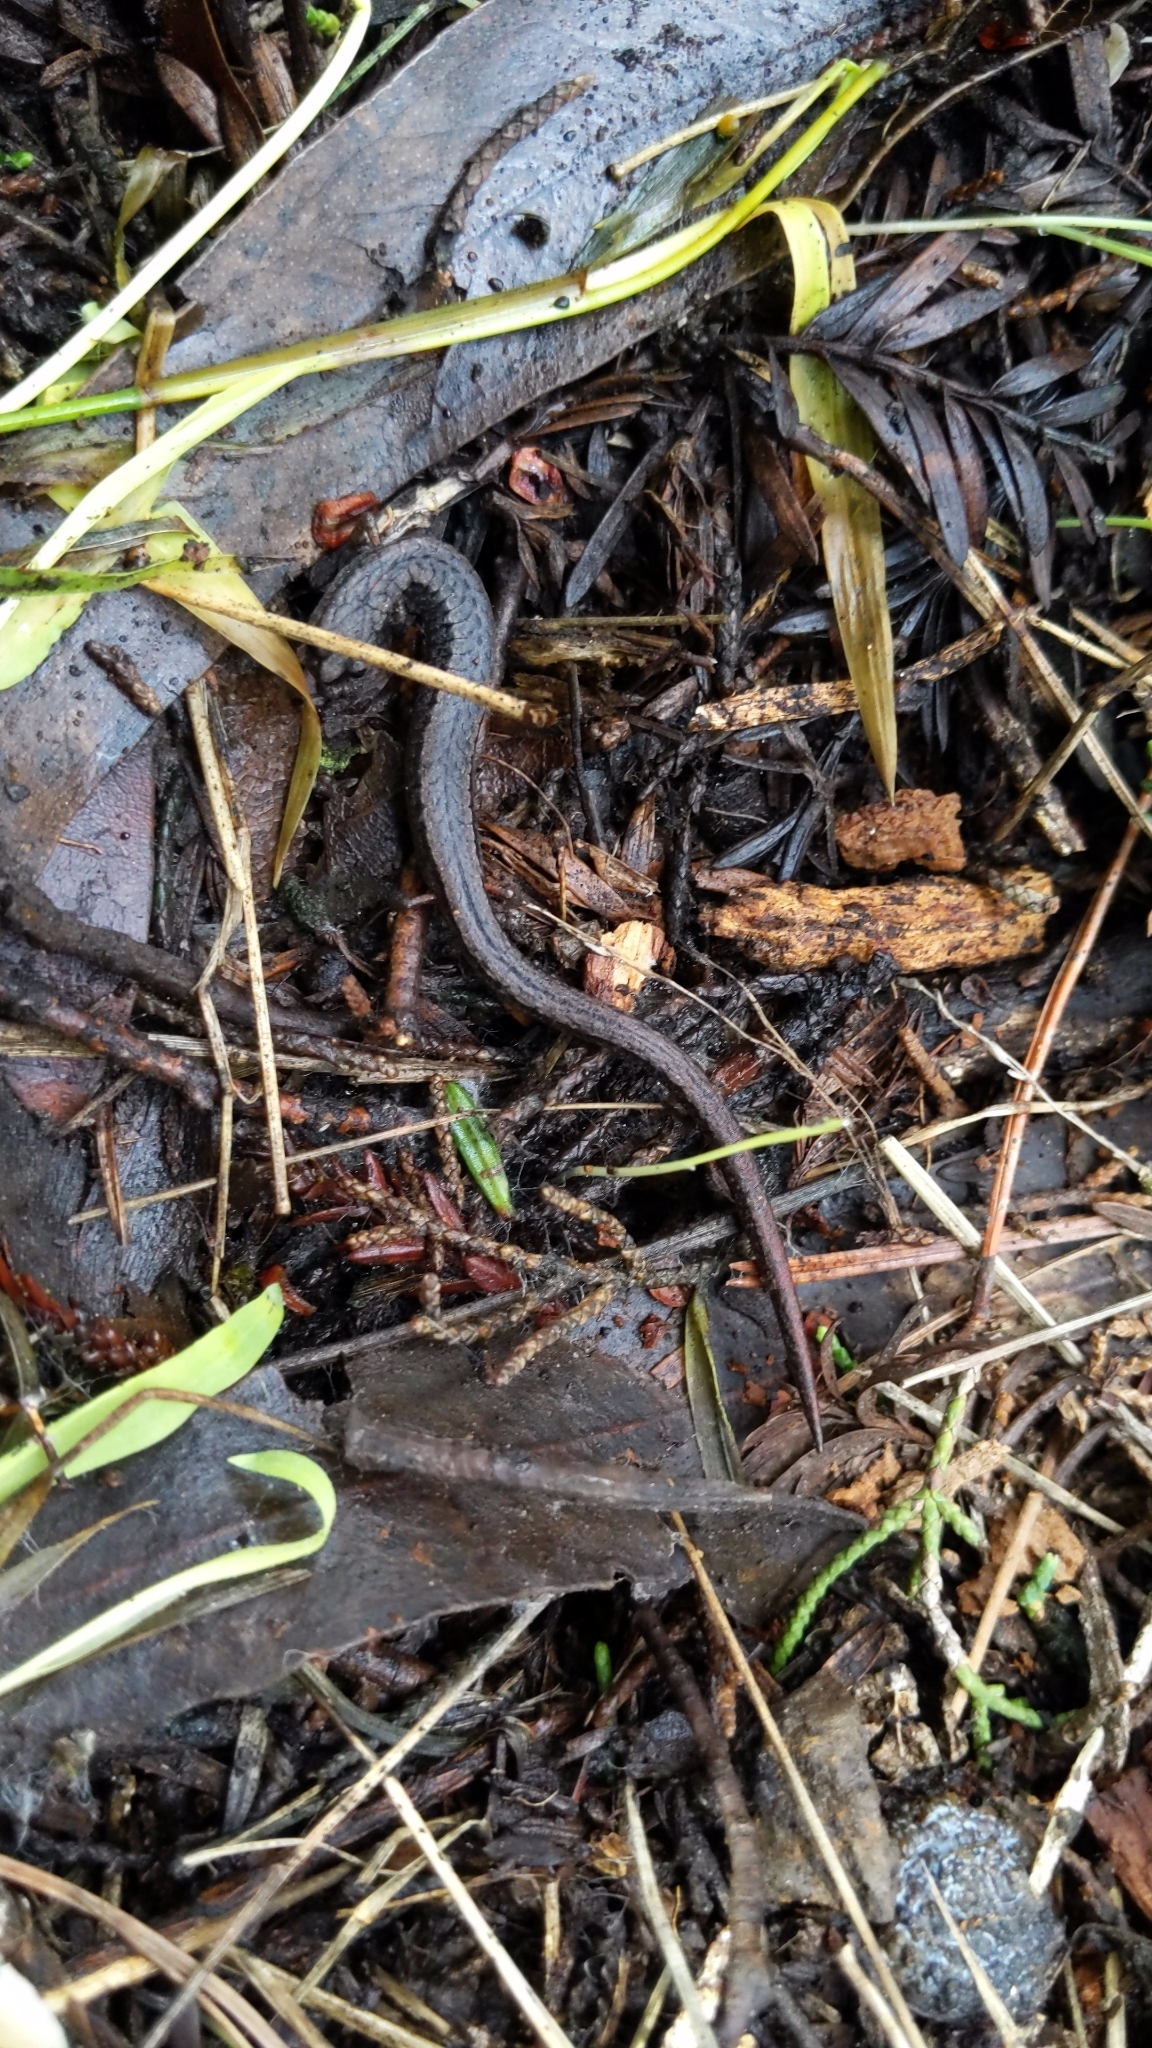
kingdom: Animalia
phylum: Chordata
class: Amphibia
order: Caudata
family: Plethodontidae
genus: Batrachoseps
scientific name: Batrachoseps attenuatus
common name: California slender salamander
